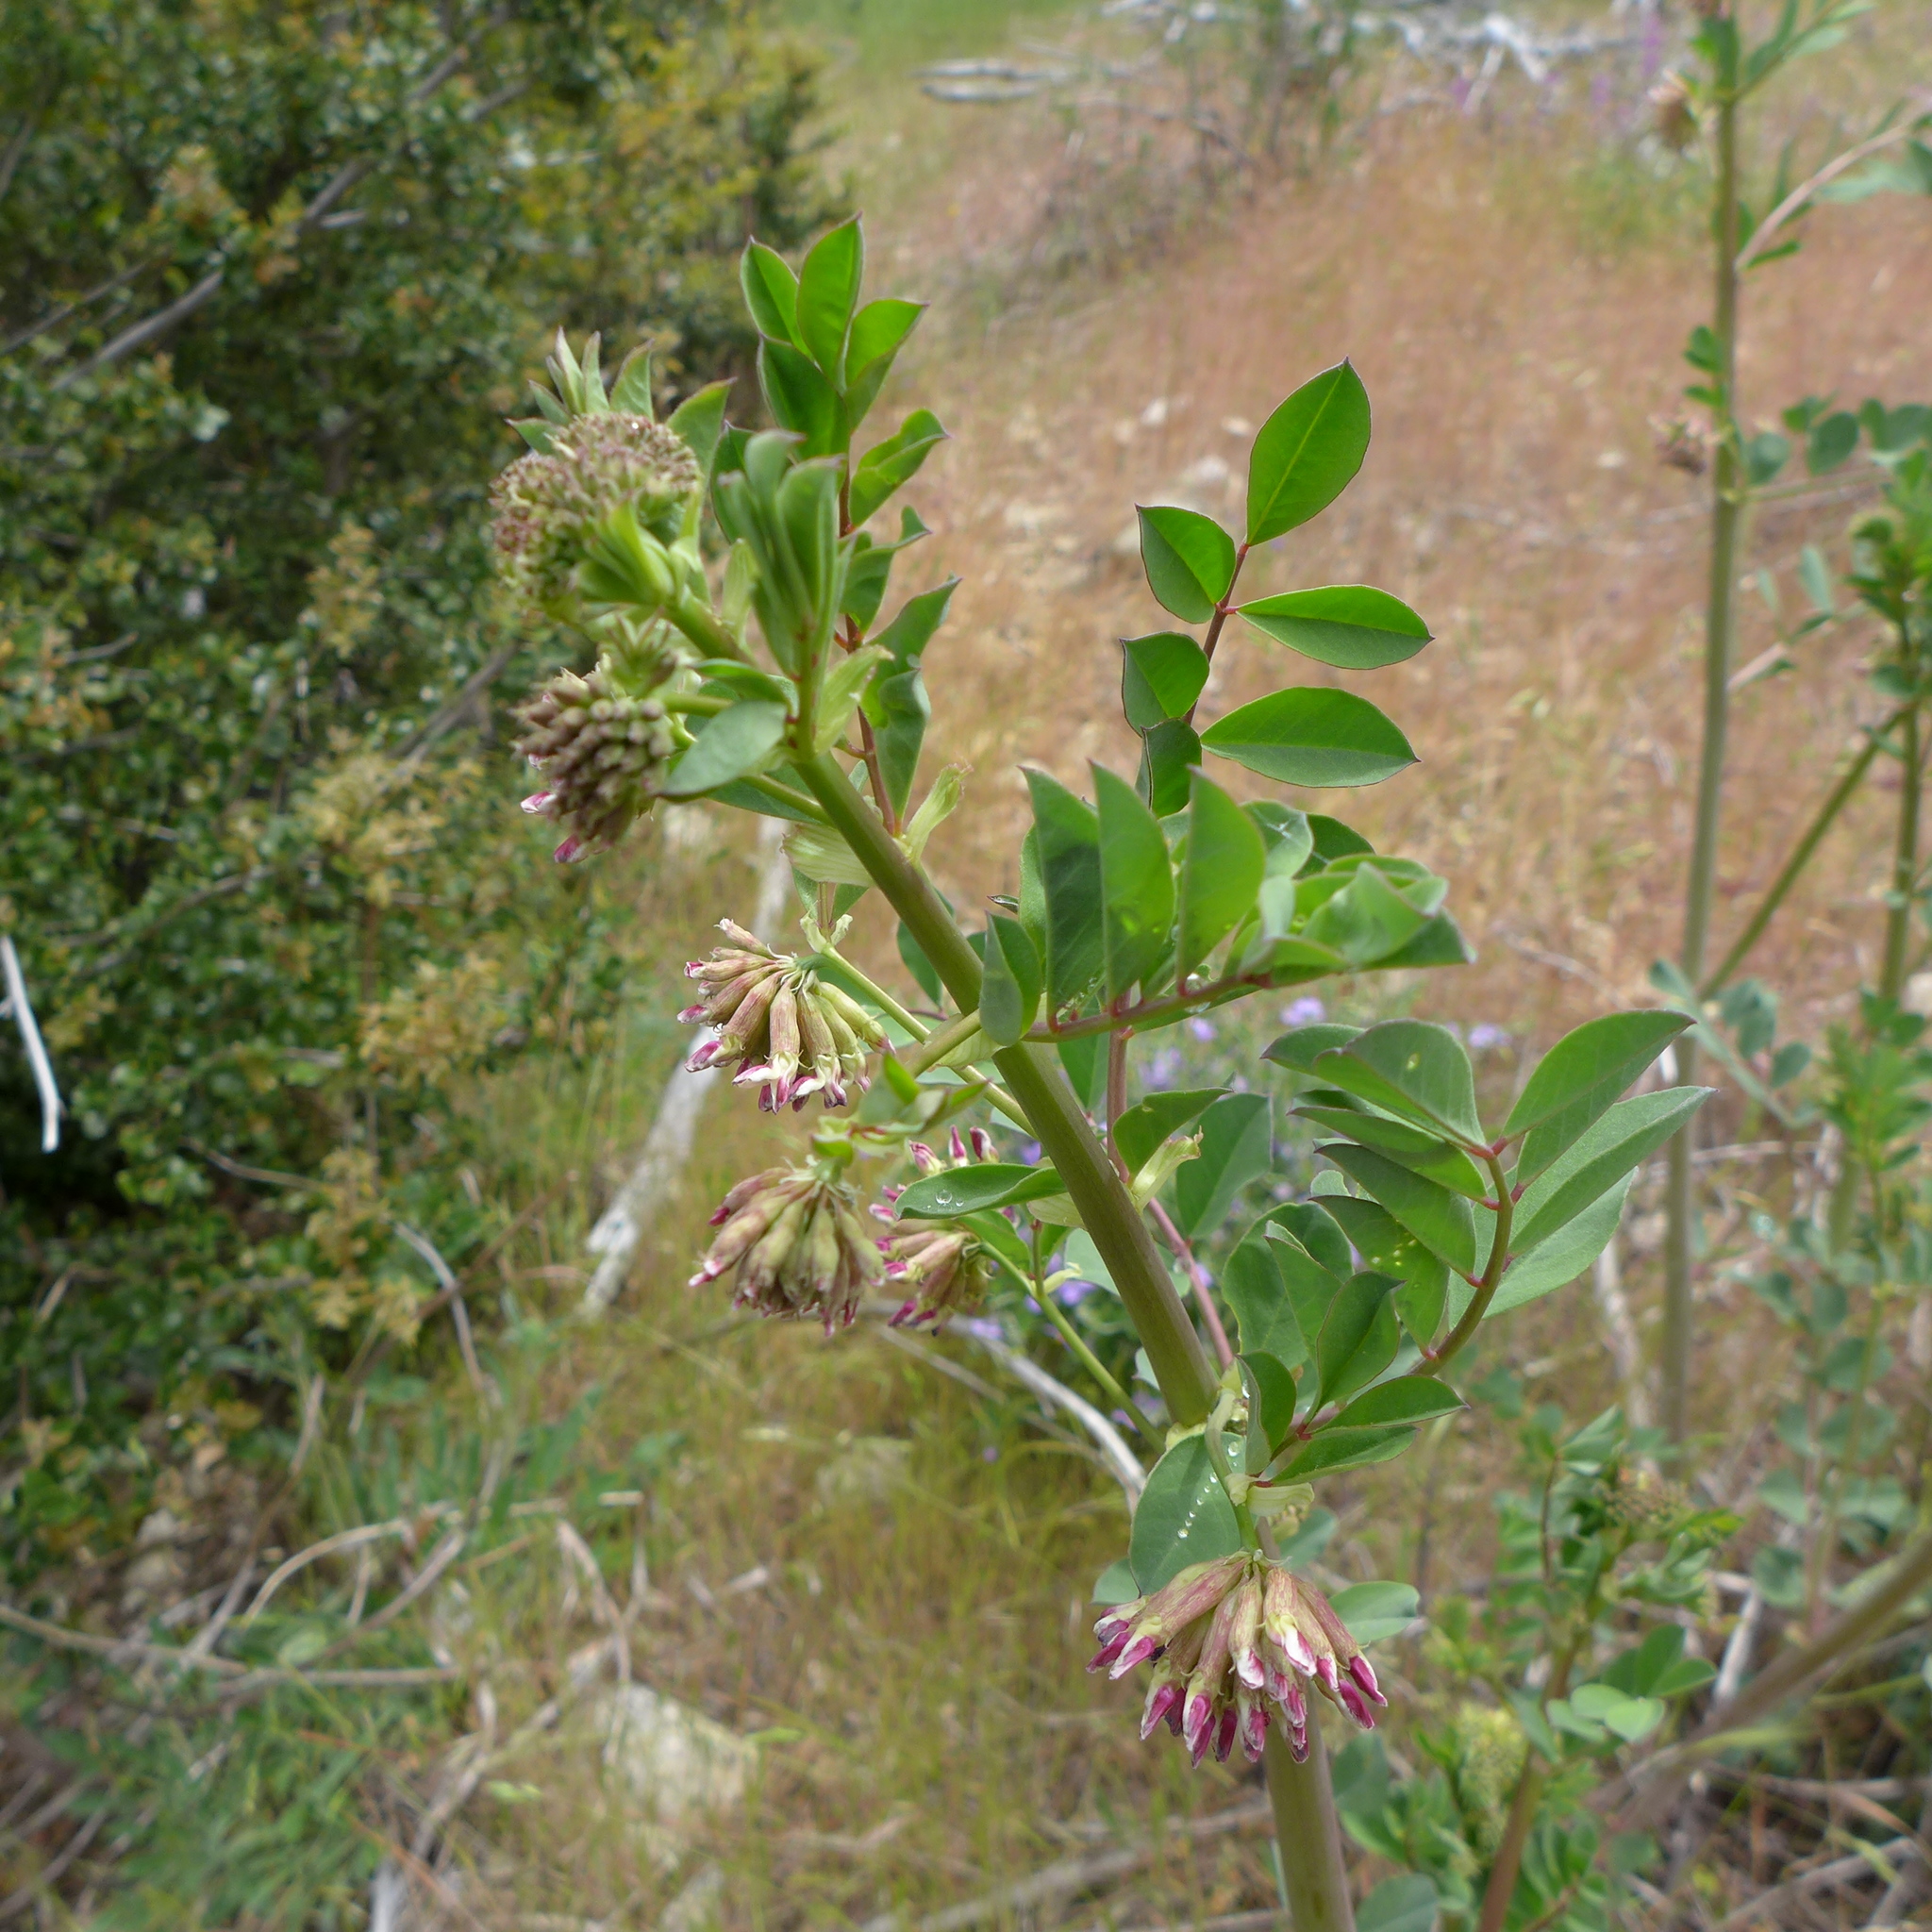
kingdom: Plantae
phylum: Tracheophyta
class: Magnoliopsida
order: Fabales
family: Fabaceae
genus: Hosackia
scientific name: Hosackia crassifolia
